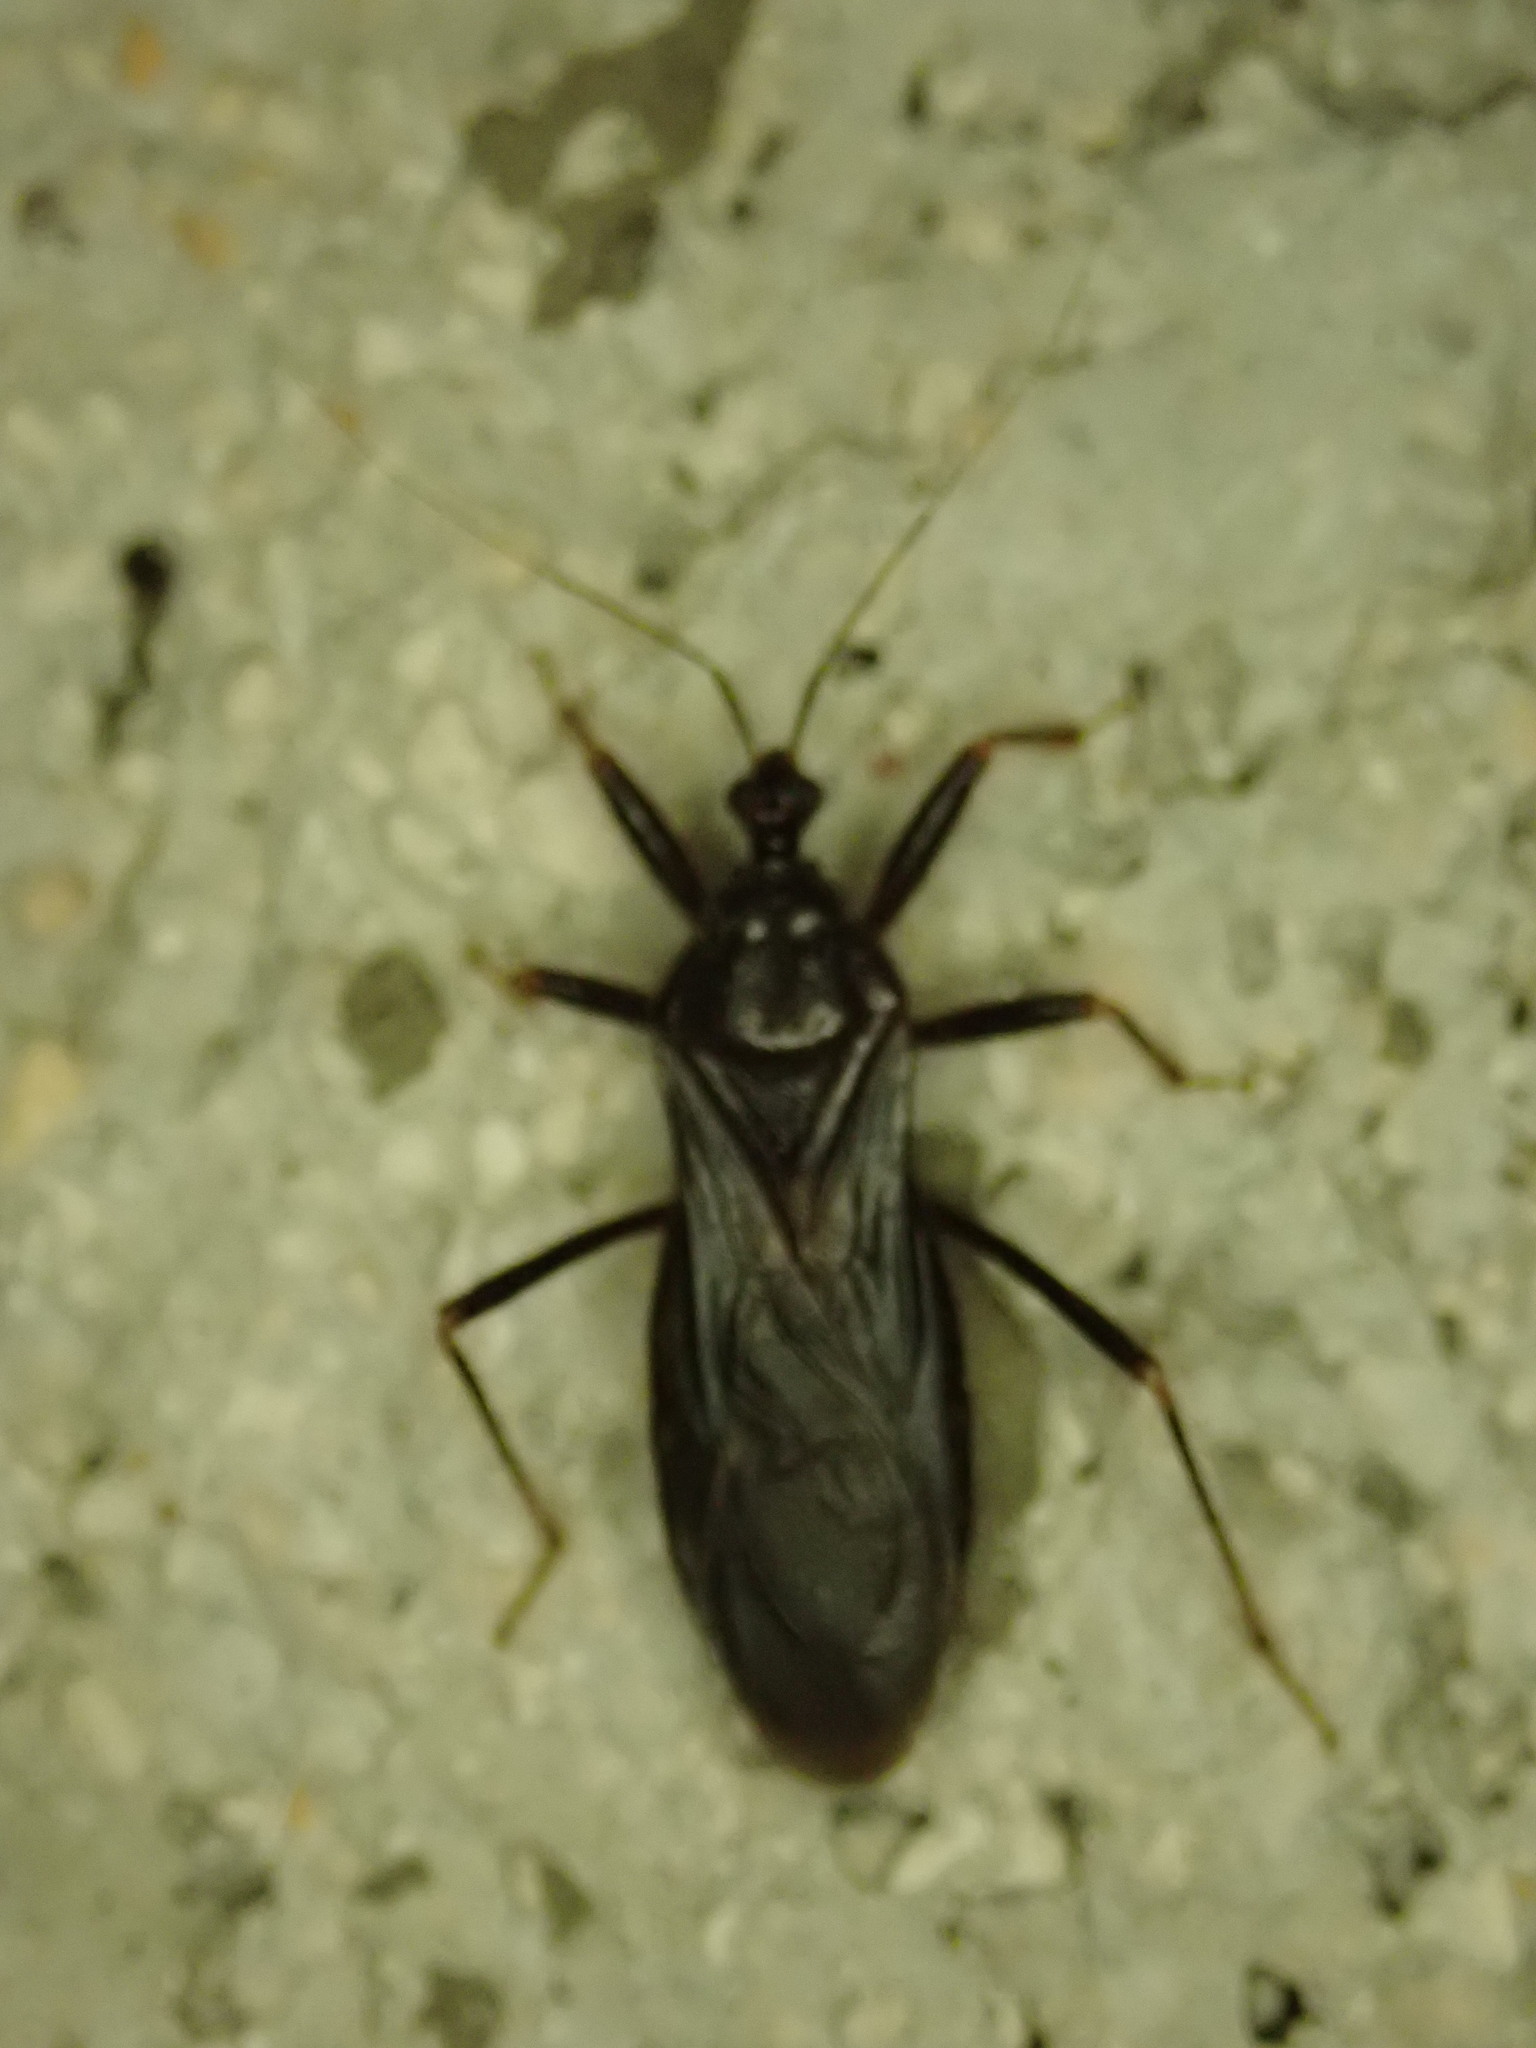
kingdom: Animalia
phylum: Arthropoda
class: Insecta
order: Hemiptera
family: Reduviidae
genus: Reduvius
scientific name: Reduvius personatus
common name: Masked hunter
